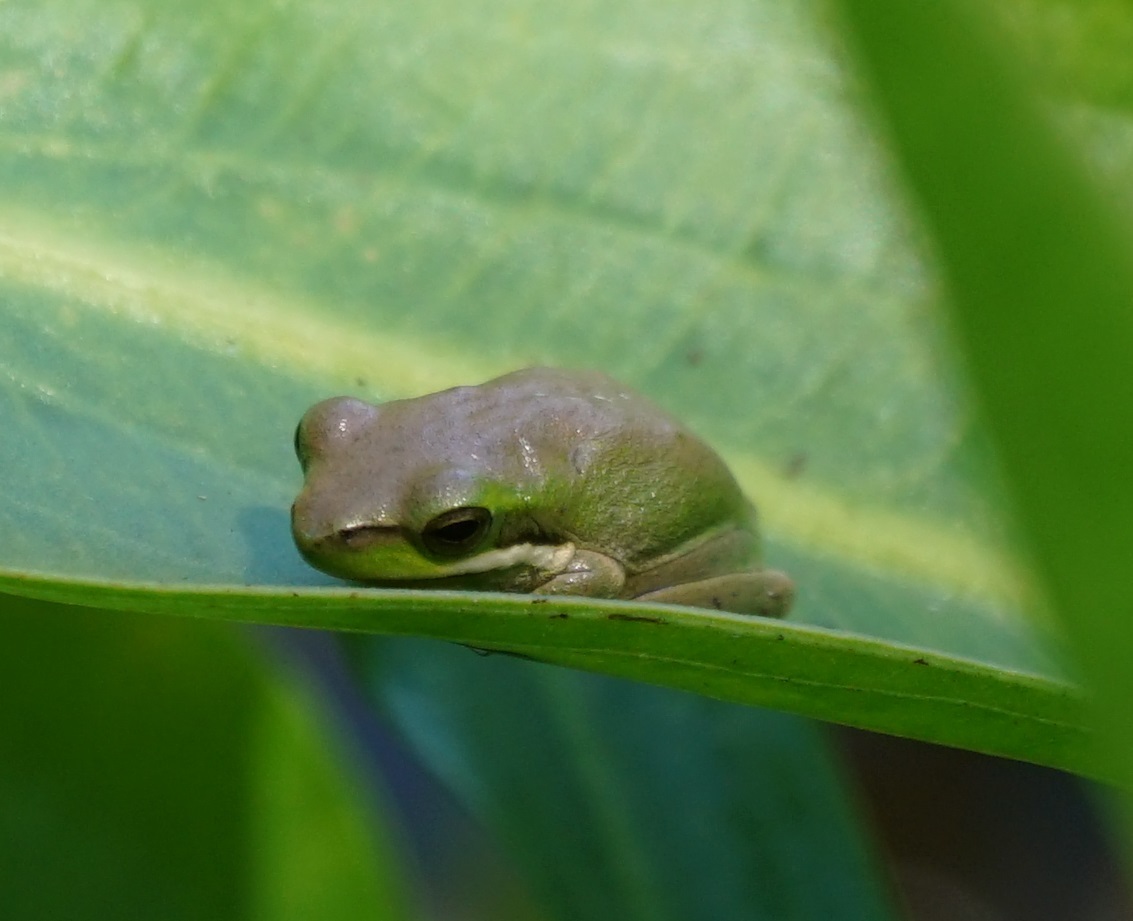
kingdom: Animalia
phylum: Chordata
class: Amphibia
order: Anura
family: Pelodryadidae
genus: Litoria
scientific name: Litoria fallax
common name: Eastern dwarf treefrog
